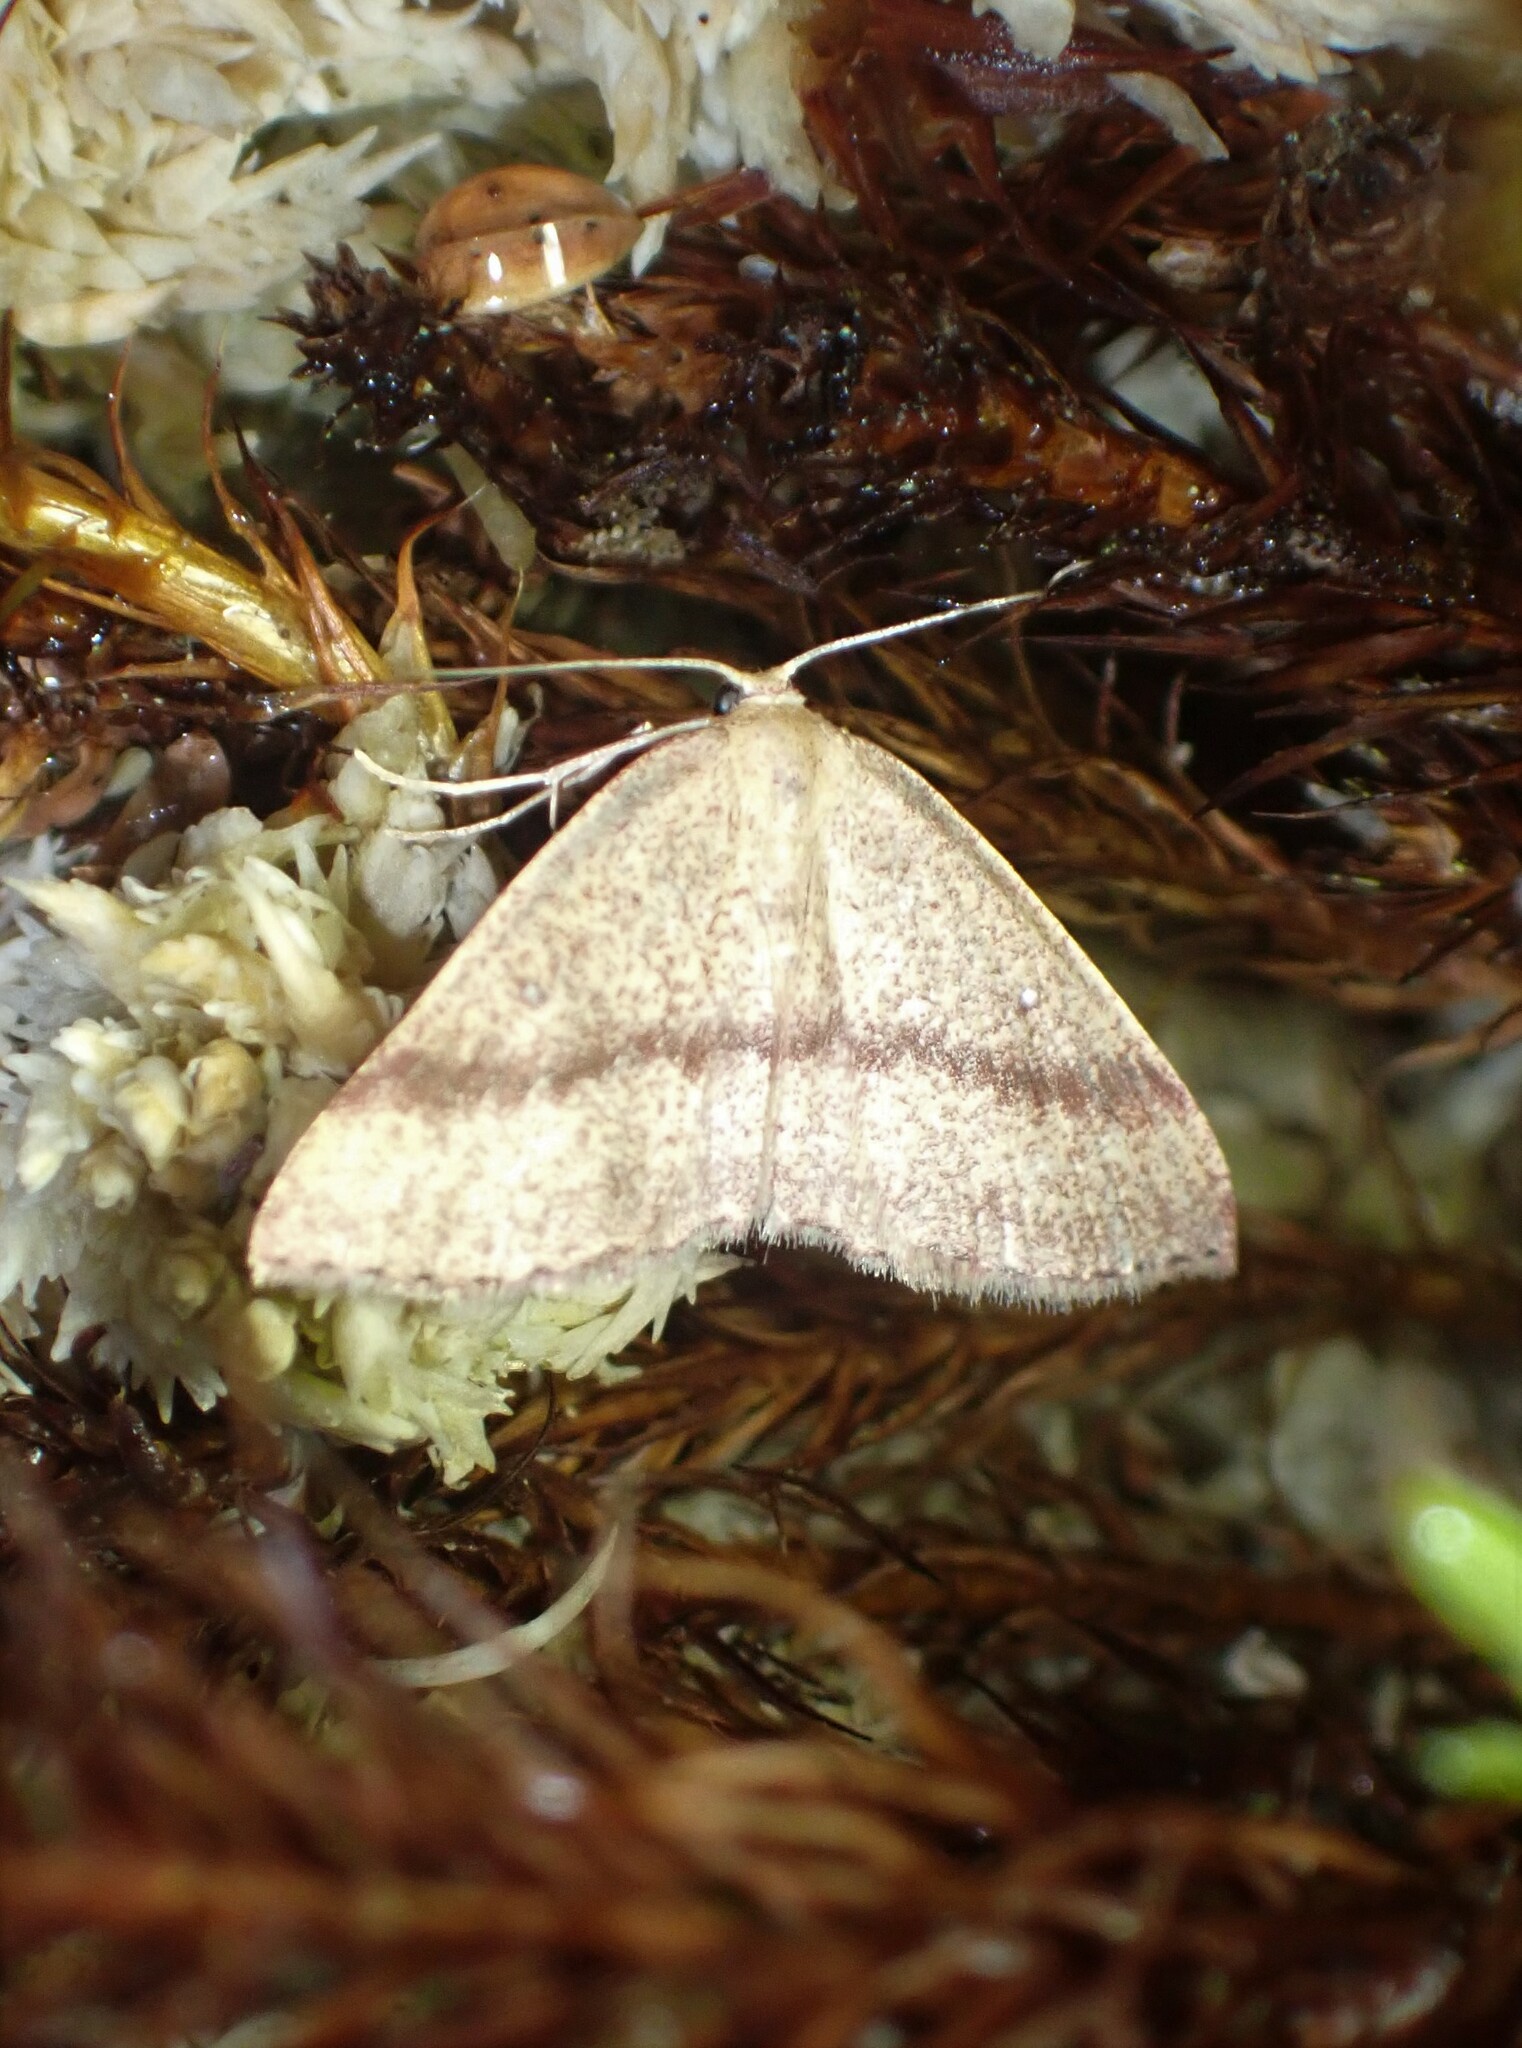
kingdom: Animalia
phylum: Arthropoda
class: Insecta
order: Lepidoptera
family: Geometridae
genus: Cyclophora
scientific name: Cyclophora azorensis
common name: Geometer moth
